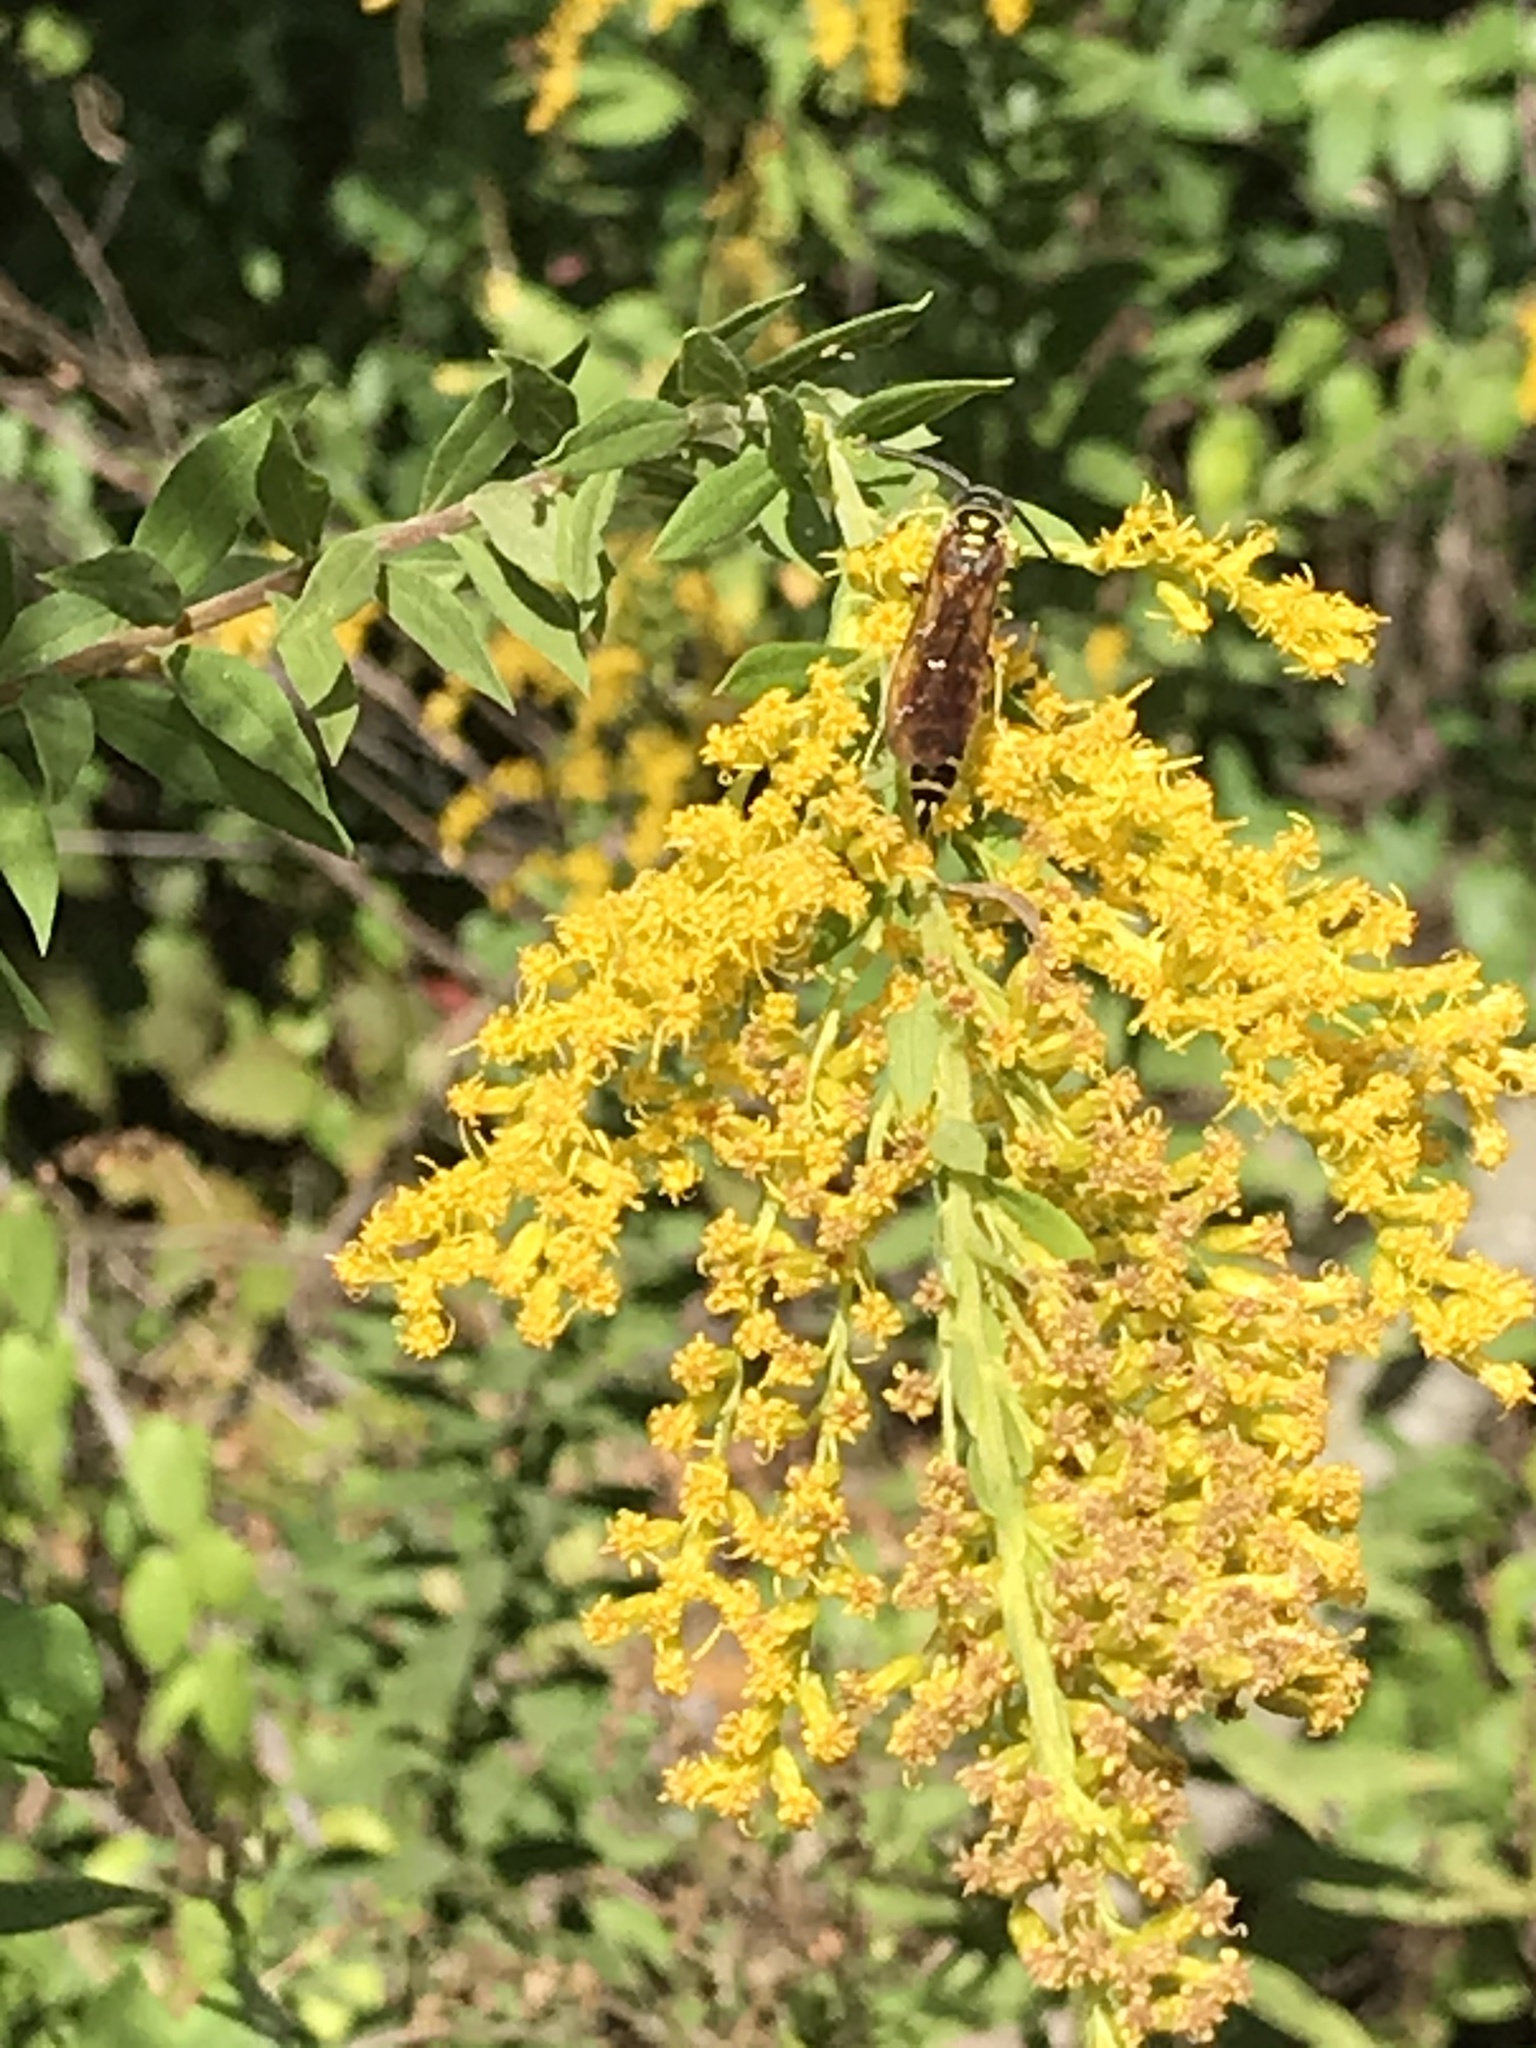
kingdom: Animalia
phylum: Arthropoda
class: Insecta
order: Hymenoptera
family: Tiphiidae
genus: Myzinum
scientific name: Myzinum quinquecinctum
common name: Five-banded thynnid wasp
